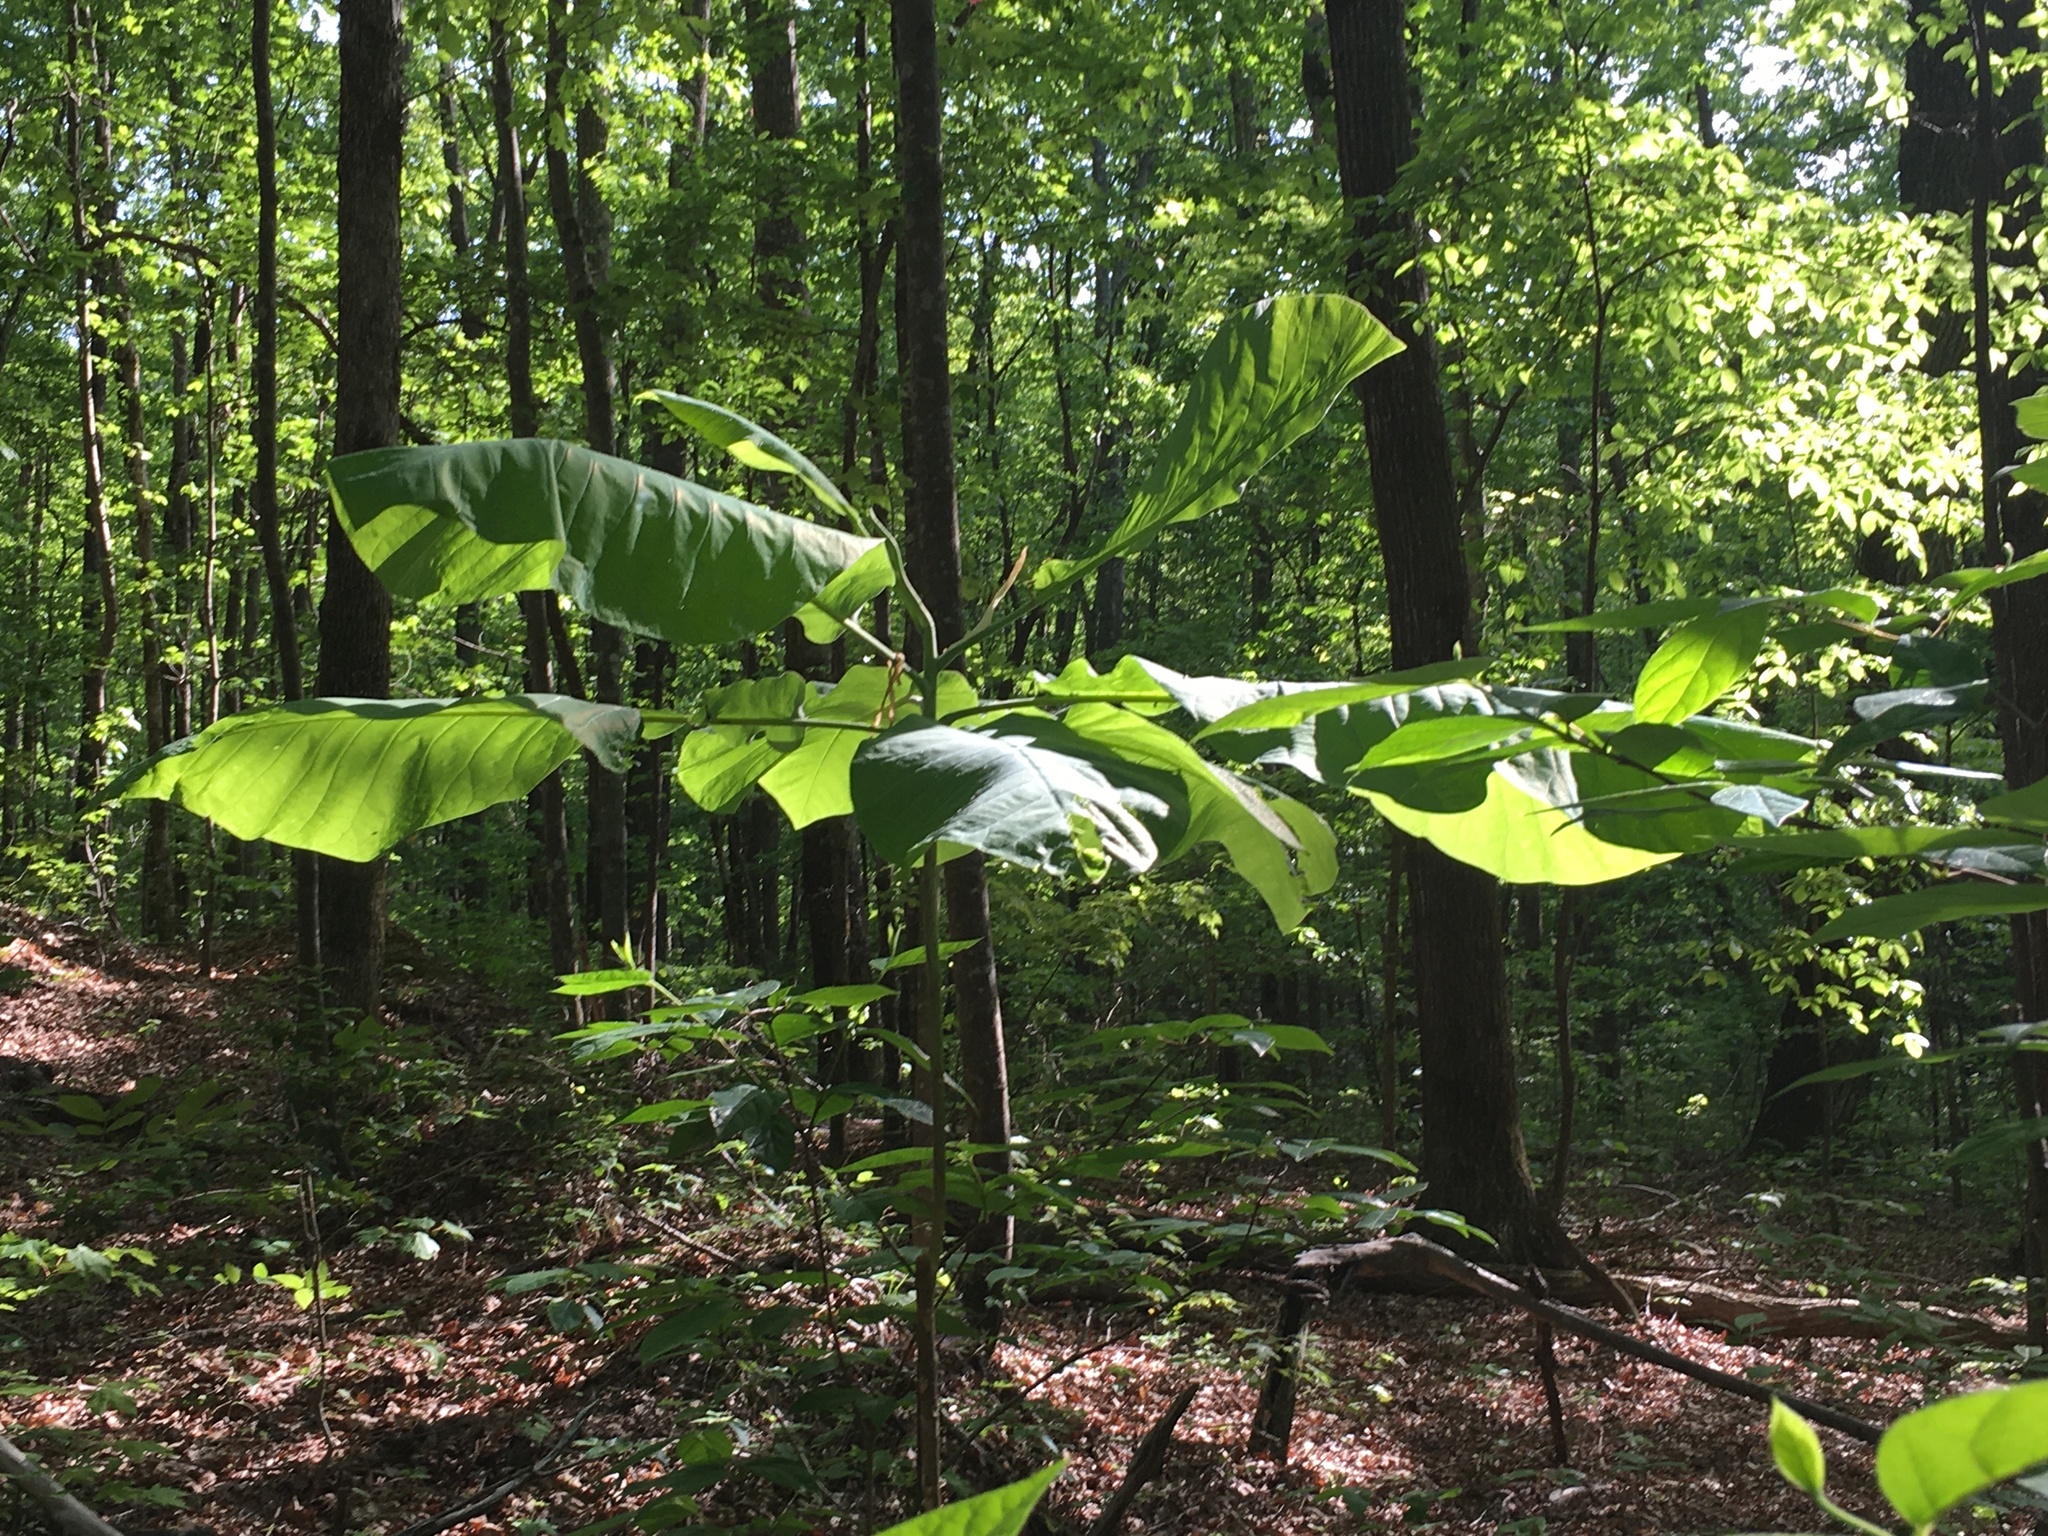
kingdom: Plantae
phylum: Tracheophyta
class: Magnoliopsida
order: Magnoliales
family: Magnoliaceae
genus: Magnolia
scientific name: Magnolia macrophylla
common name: Big-leaf magnolia
